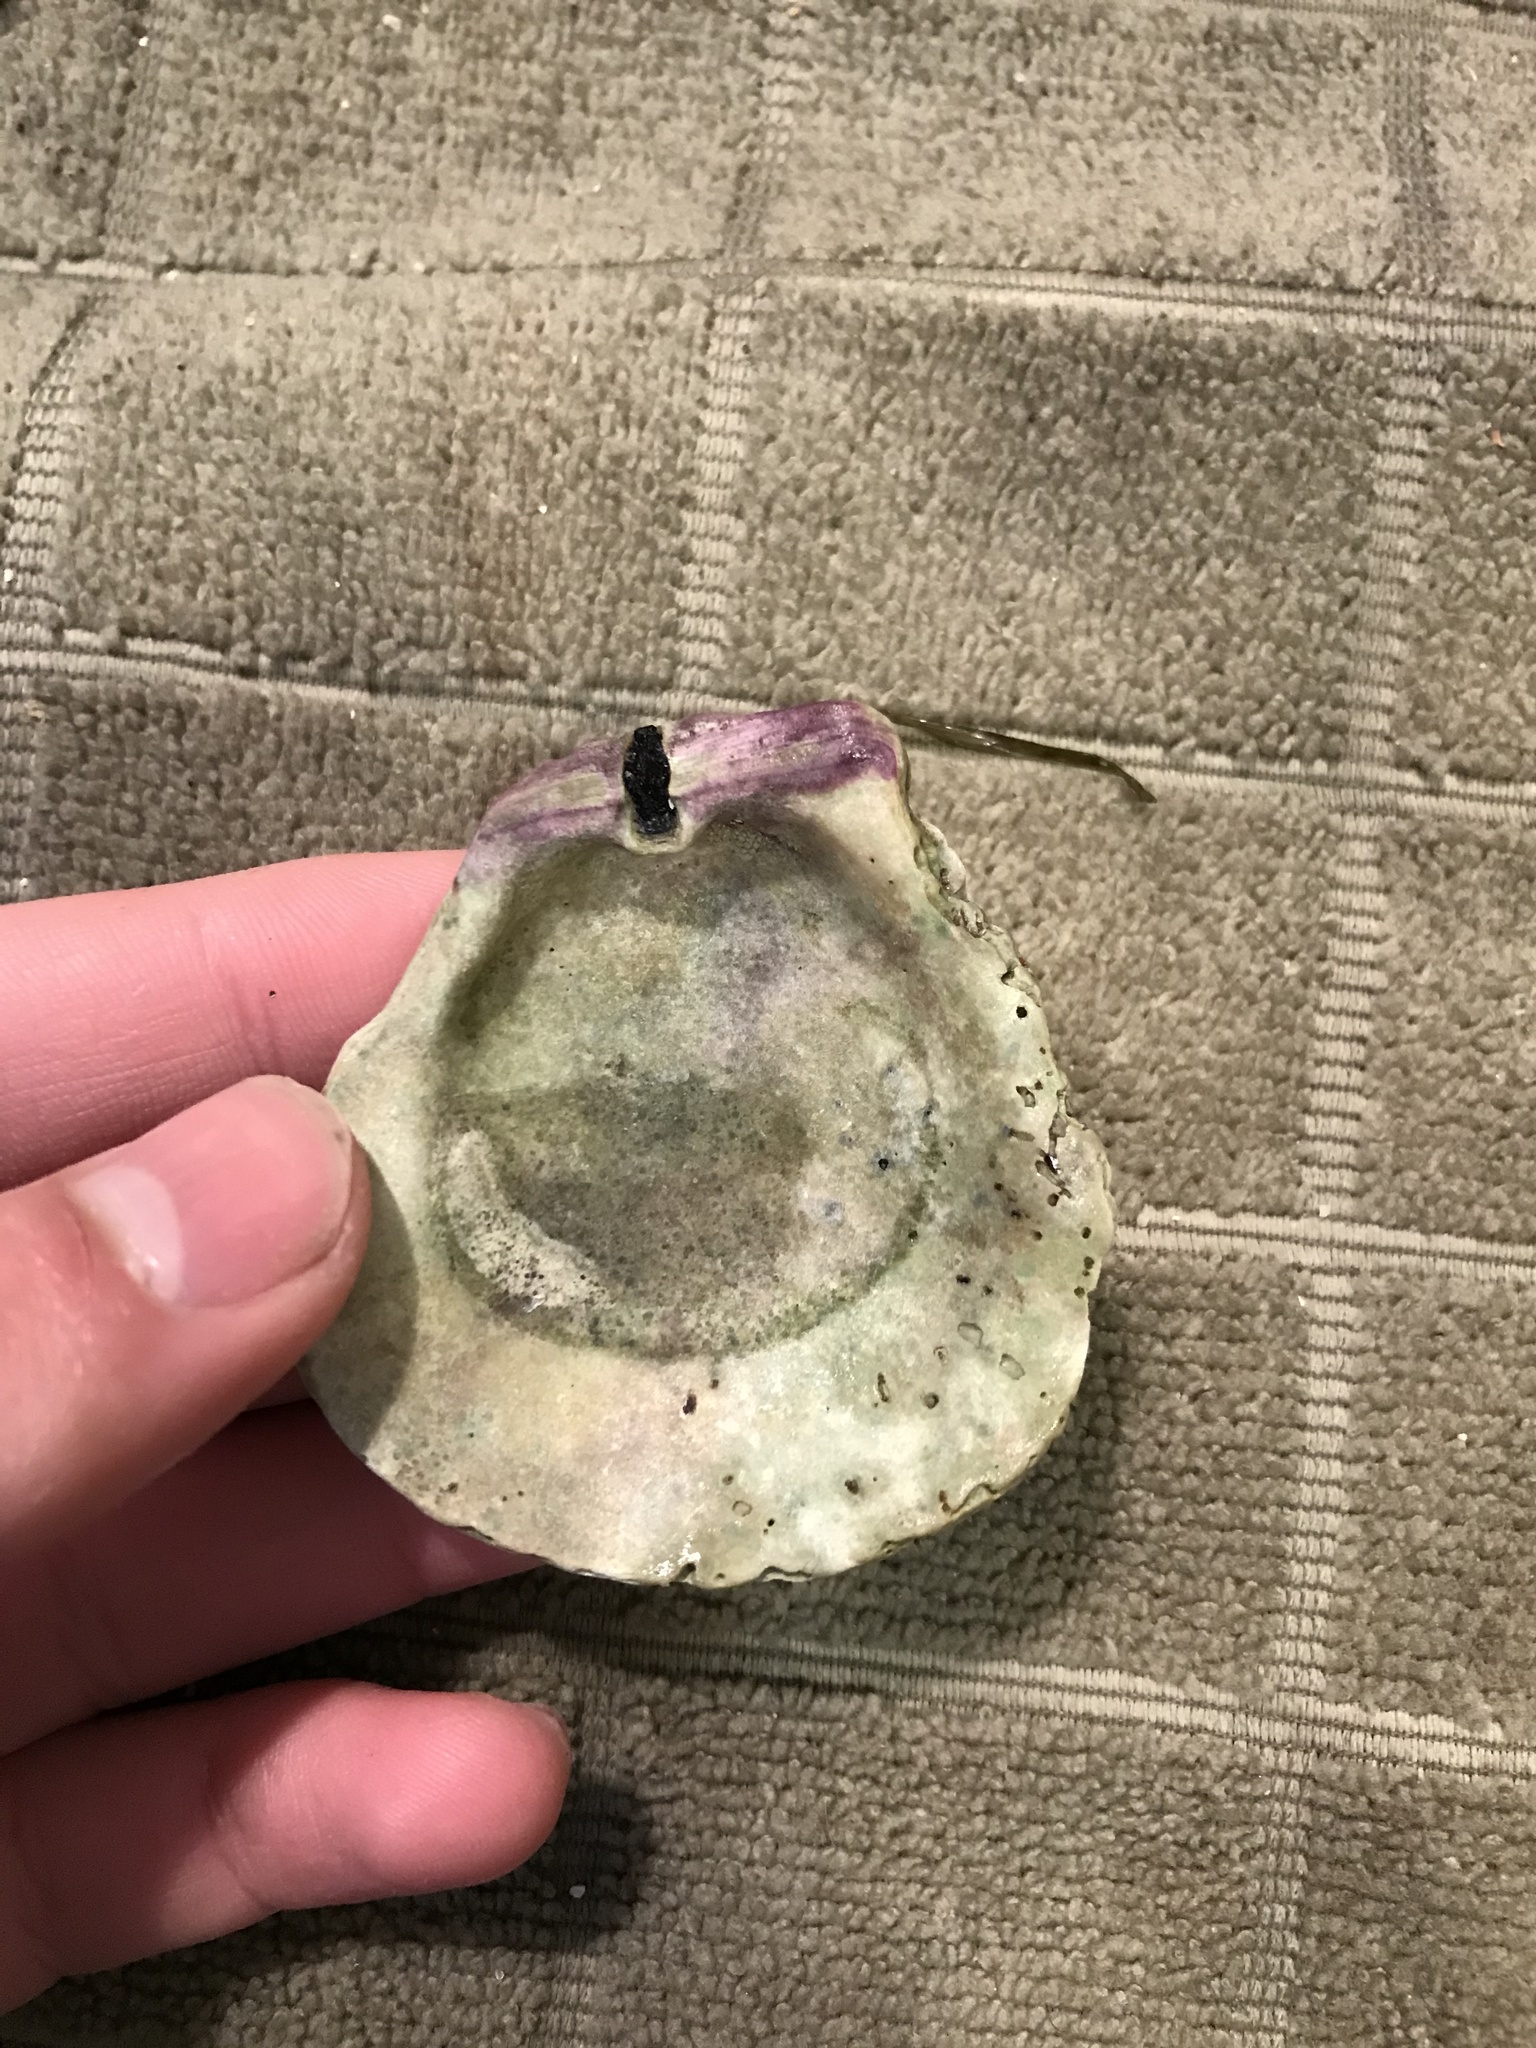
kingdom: Animalia
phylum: Mollusca
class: Bivalvia
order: Pectinida
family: Pectinidae
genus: Crassadoma
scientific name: Crassadoma gigantea
